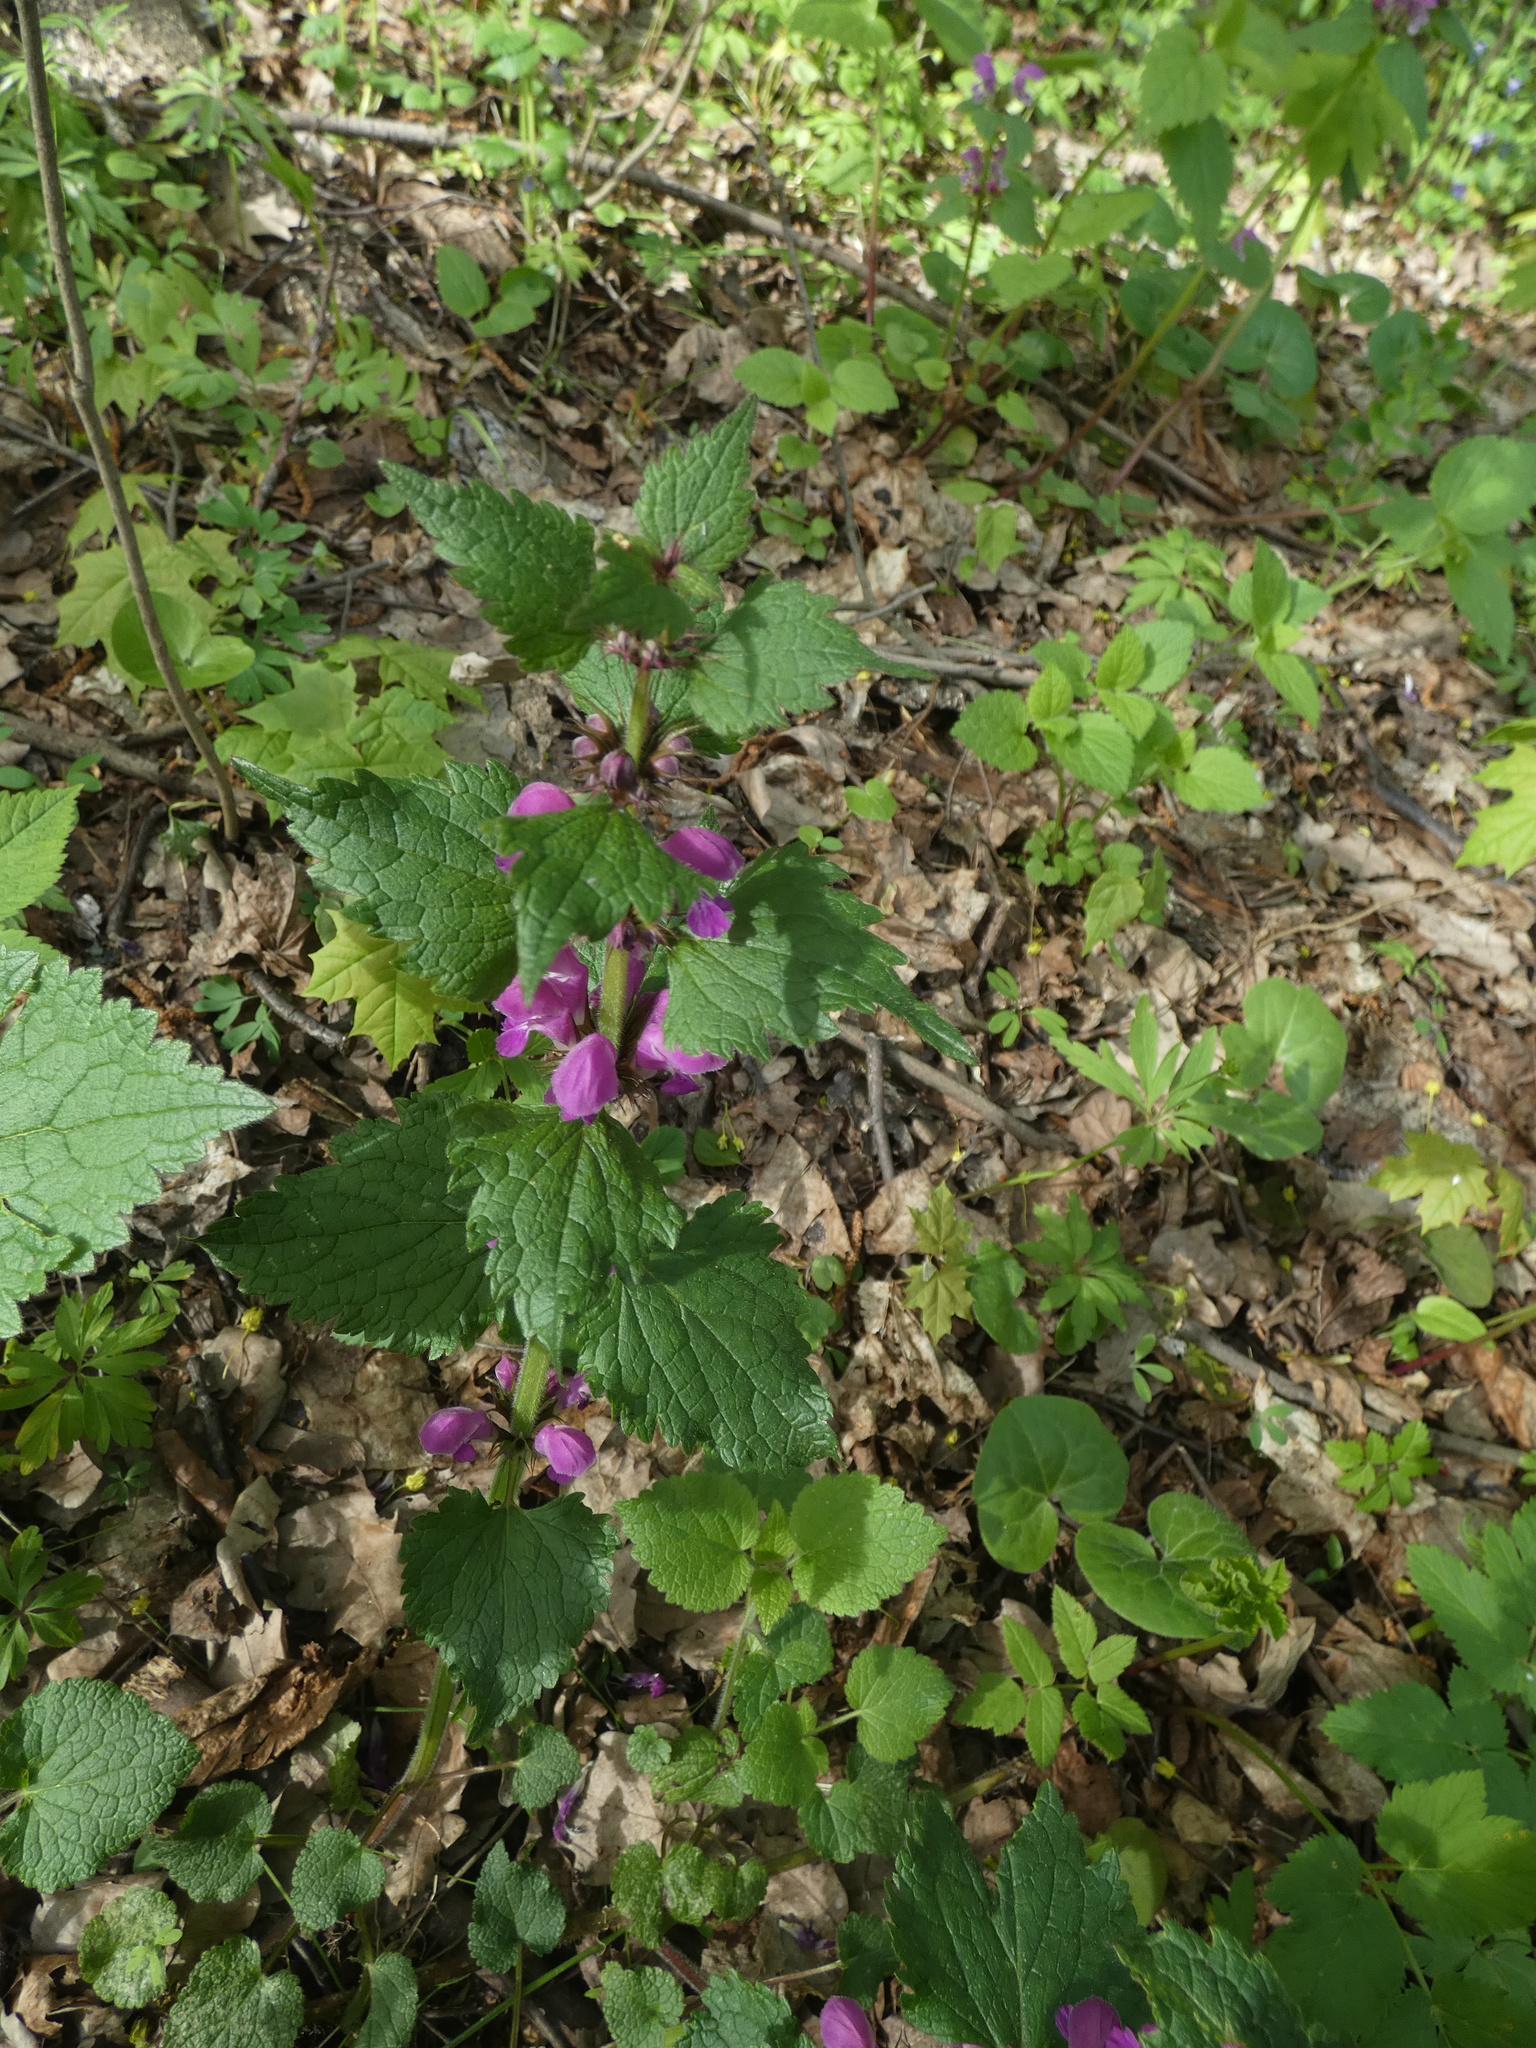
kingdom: Plantae
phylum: Tracheophyta
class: Magnoliopsida
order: Lamiales
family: Lamiaceae
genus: Lamium
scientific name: Lamium maculatum
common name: Spotted dead-nettle
